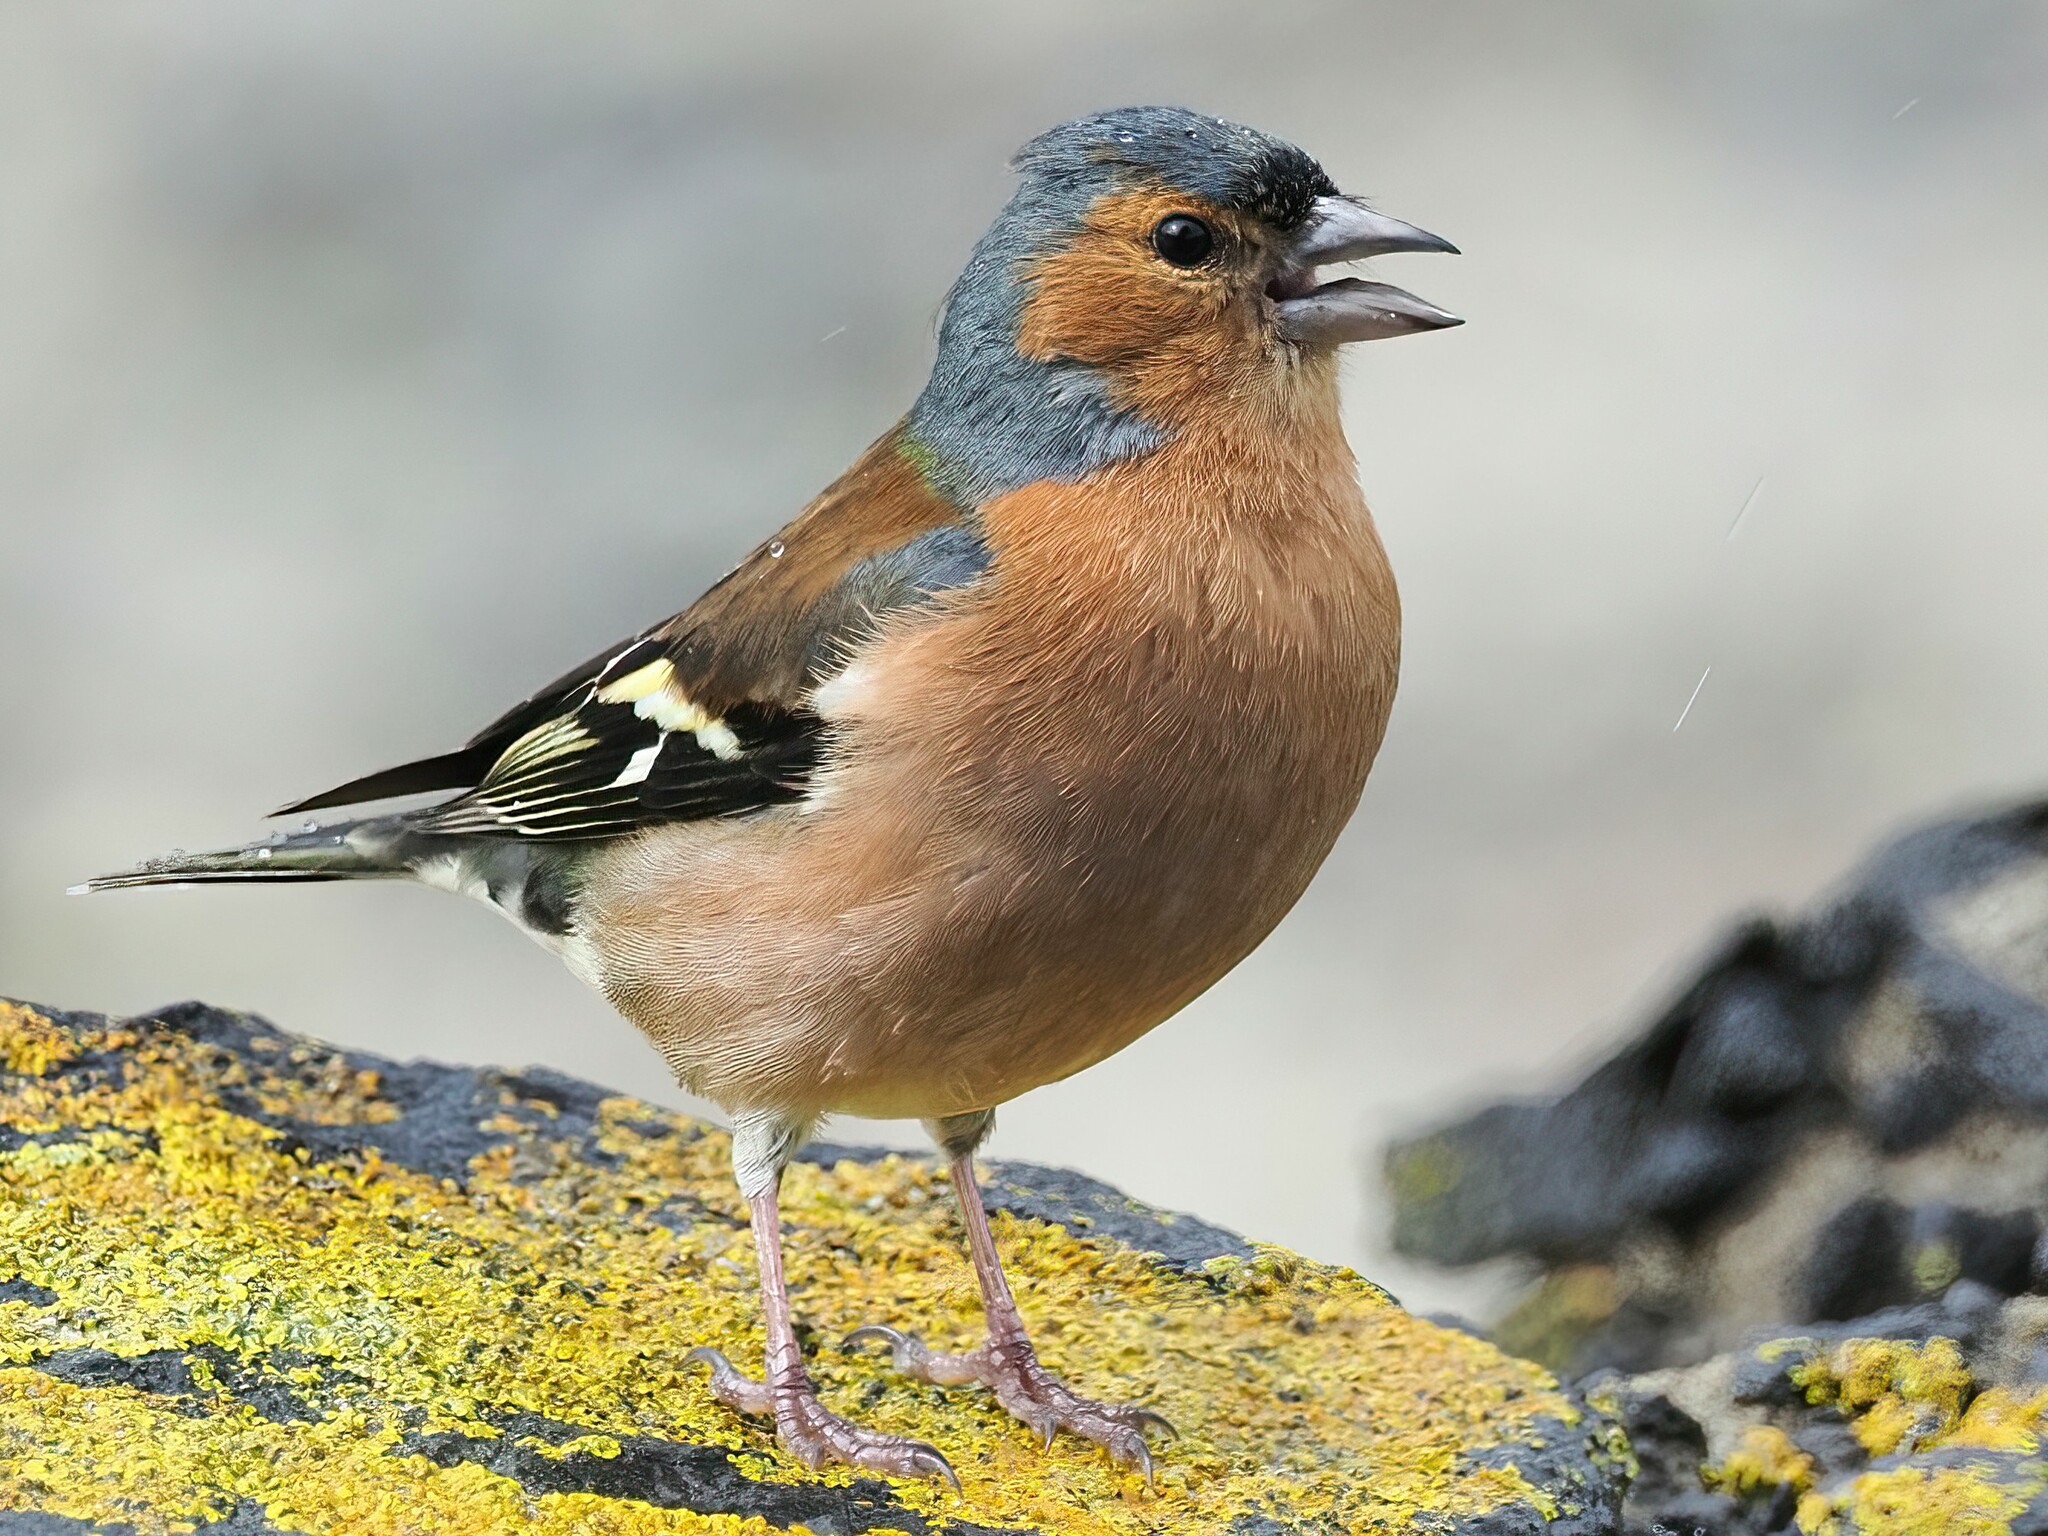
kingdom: Animalia
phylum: Chordata
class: Aves
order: Passeriformes
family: Fringillidae
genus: Fringilla
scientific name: Fringilla coelebs
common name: Common chaffinch
